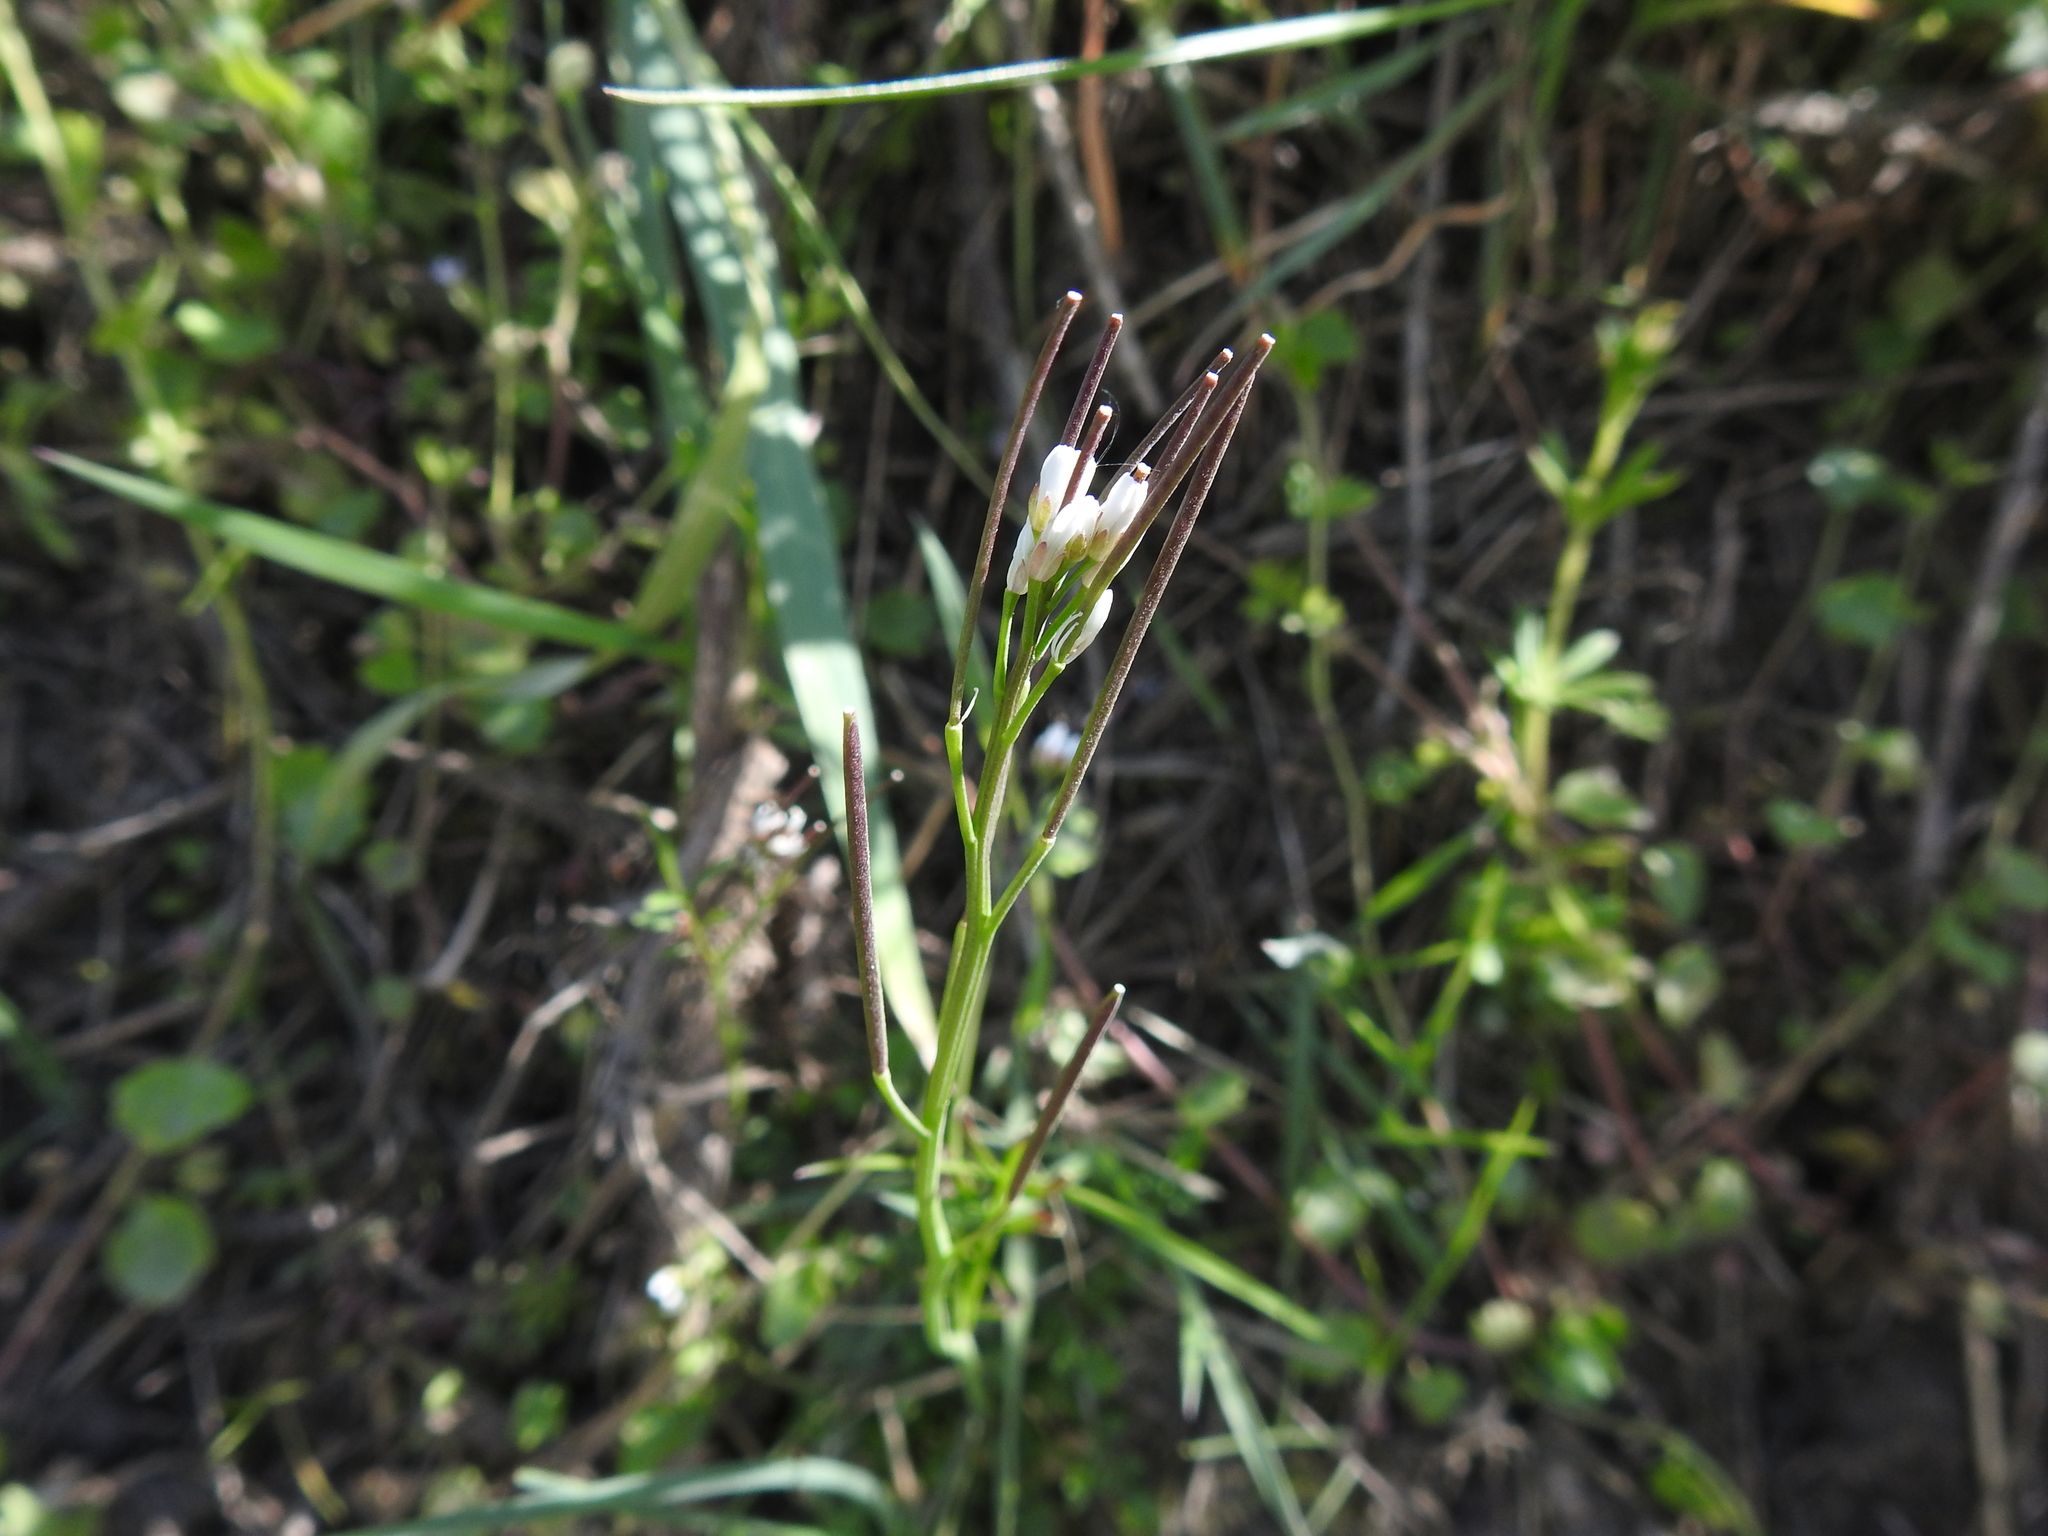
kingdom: Plantae
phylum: Tracheophyta
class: Magnoliopsida
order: Brassicales
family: Brassicaceae
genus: Cardamine
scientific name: Cardamine hirsuta
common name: Hairy bittercress
